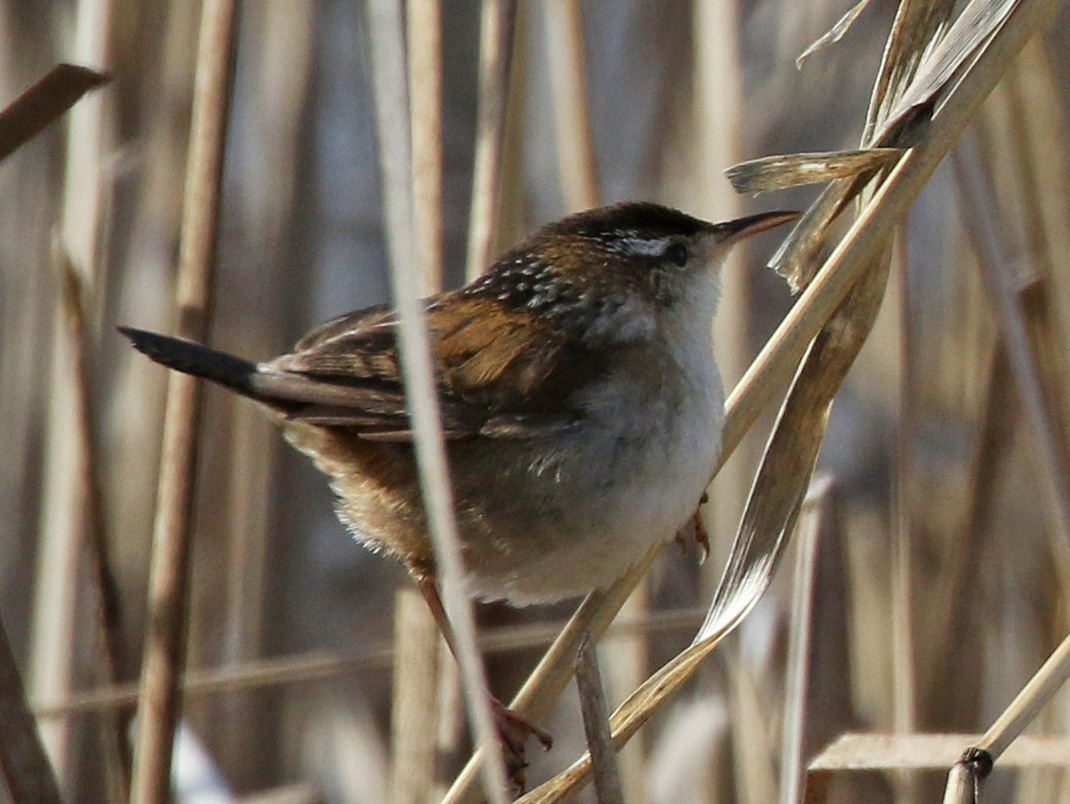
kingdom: Animalia
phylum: Chordata
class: Aves
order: Passeriformes
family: Troglodytidae
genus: Cistothorus
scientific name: Cistothorus palustris
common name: Marsh wren
